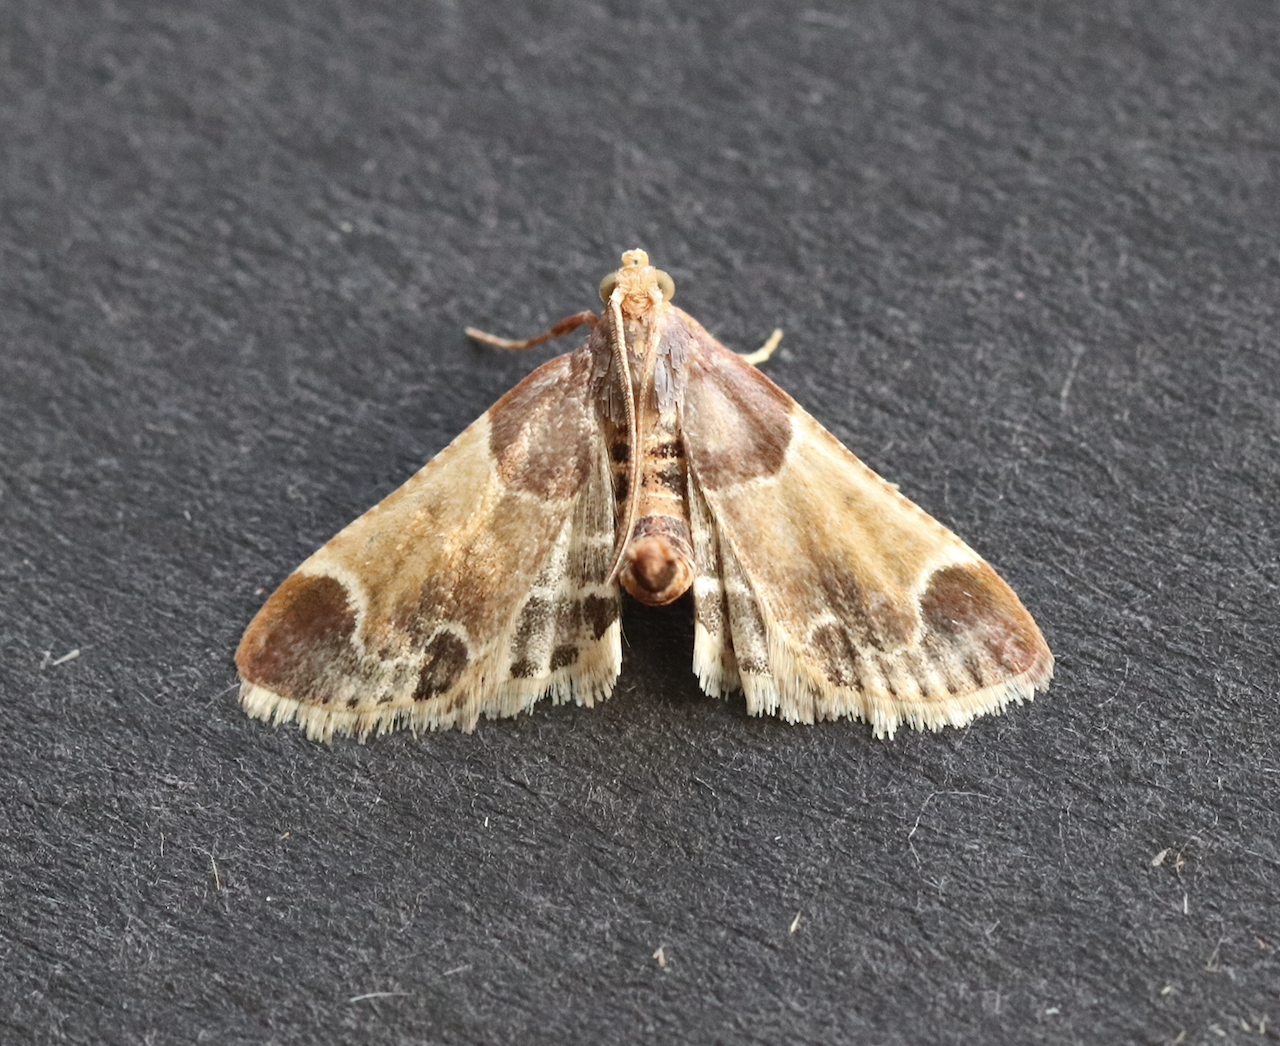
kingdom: Animalia
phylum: Arthropoda
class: Insecta
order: Lepidoptera
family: Pyralidae
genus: Pyralis
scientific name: Pyralis farinalis
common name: Meal moth
